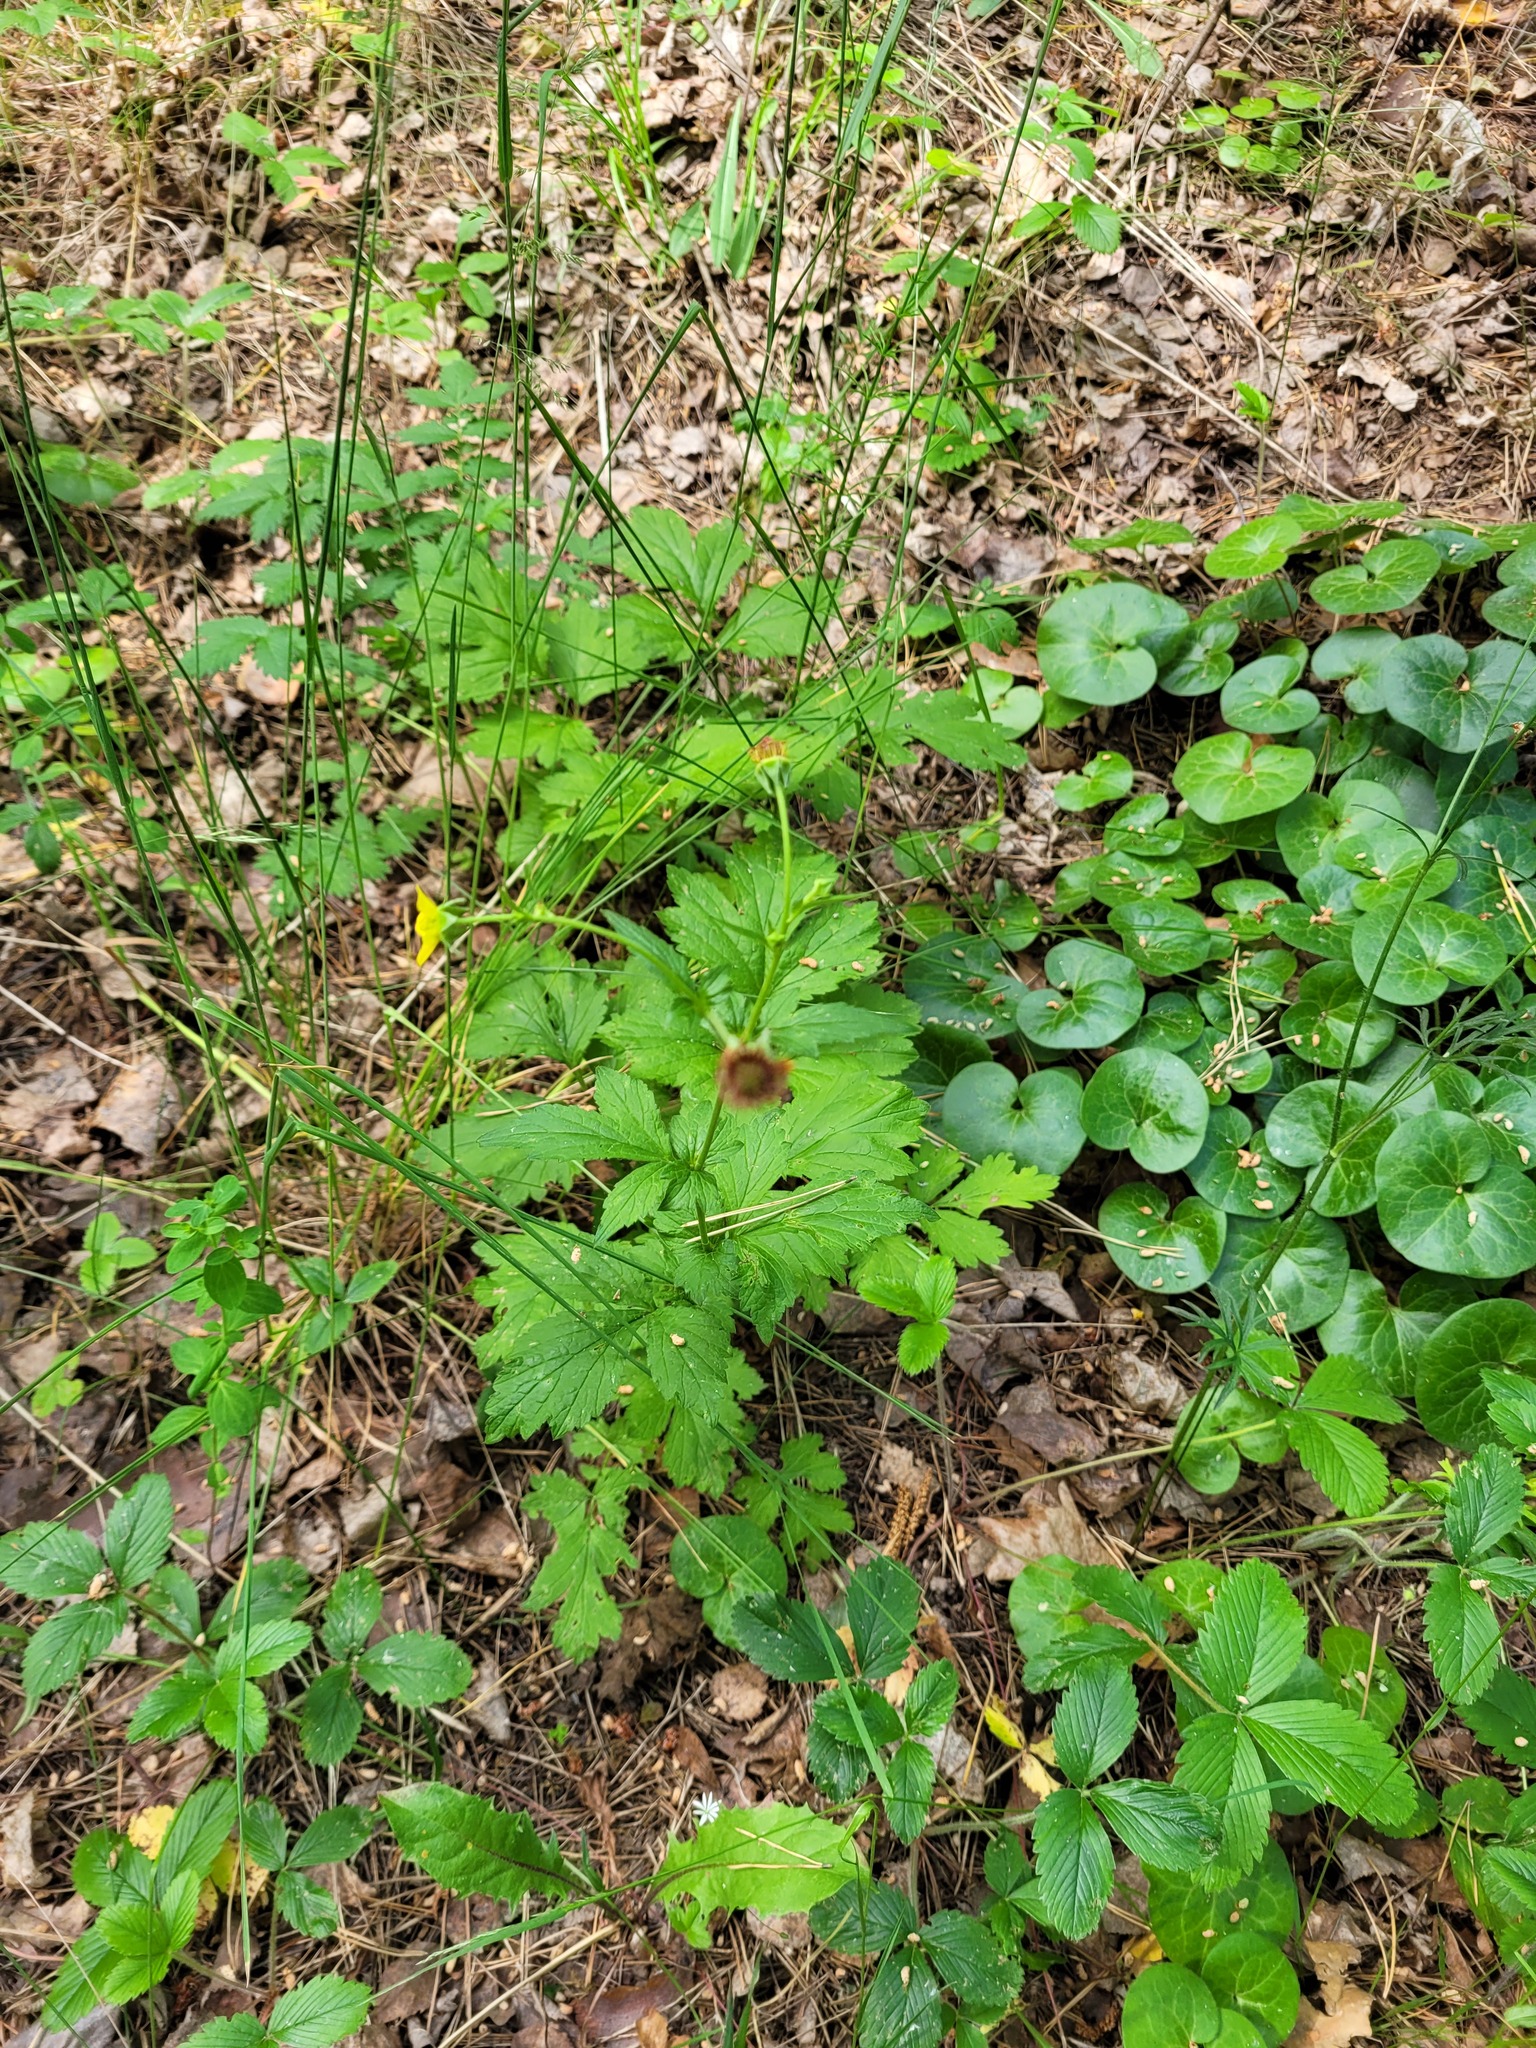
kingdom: Plantae
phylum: Tracheophyta
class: Magnoliopsida
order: Rosales
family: Rosaceae
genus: Geum
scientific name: Geum urbanum
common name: Wood avens
